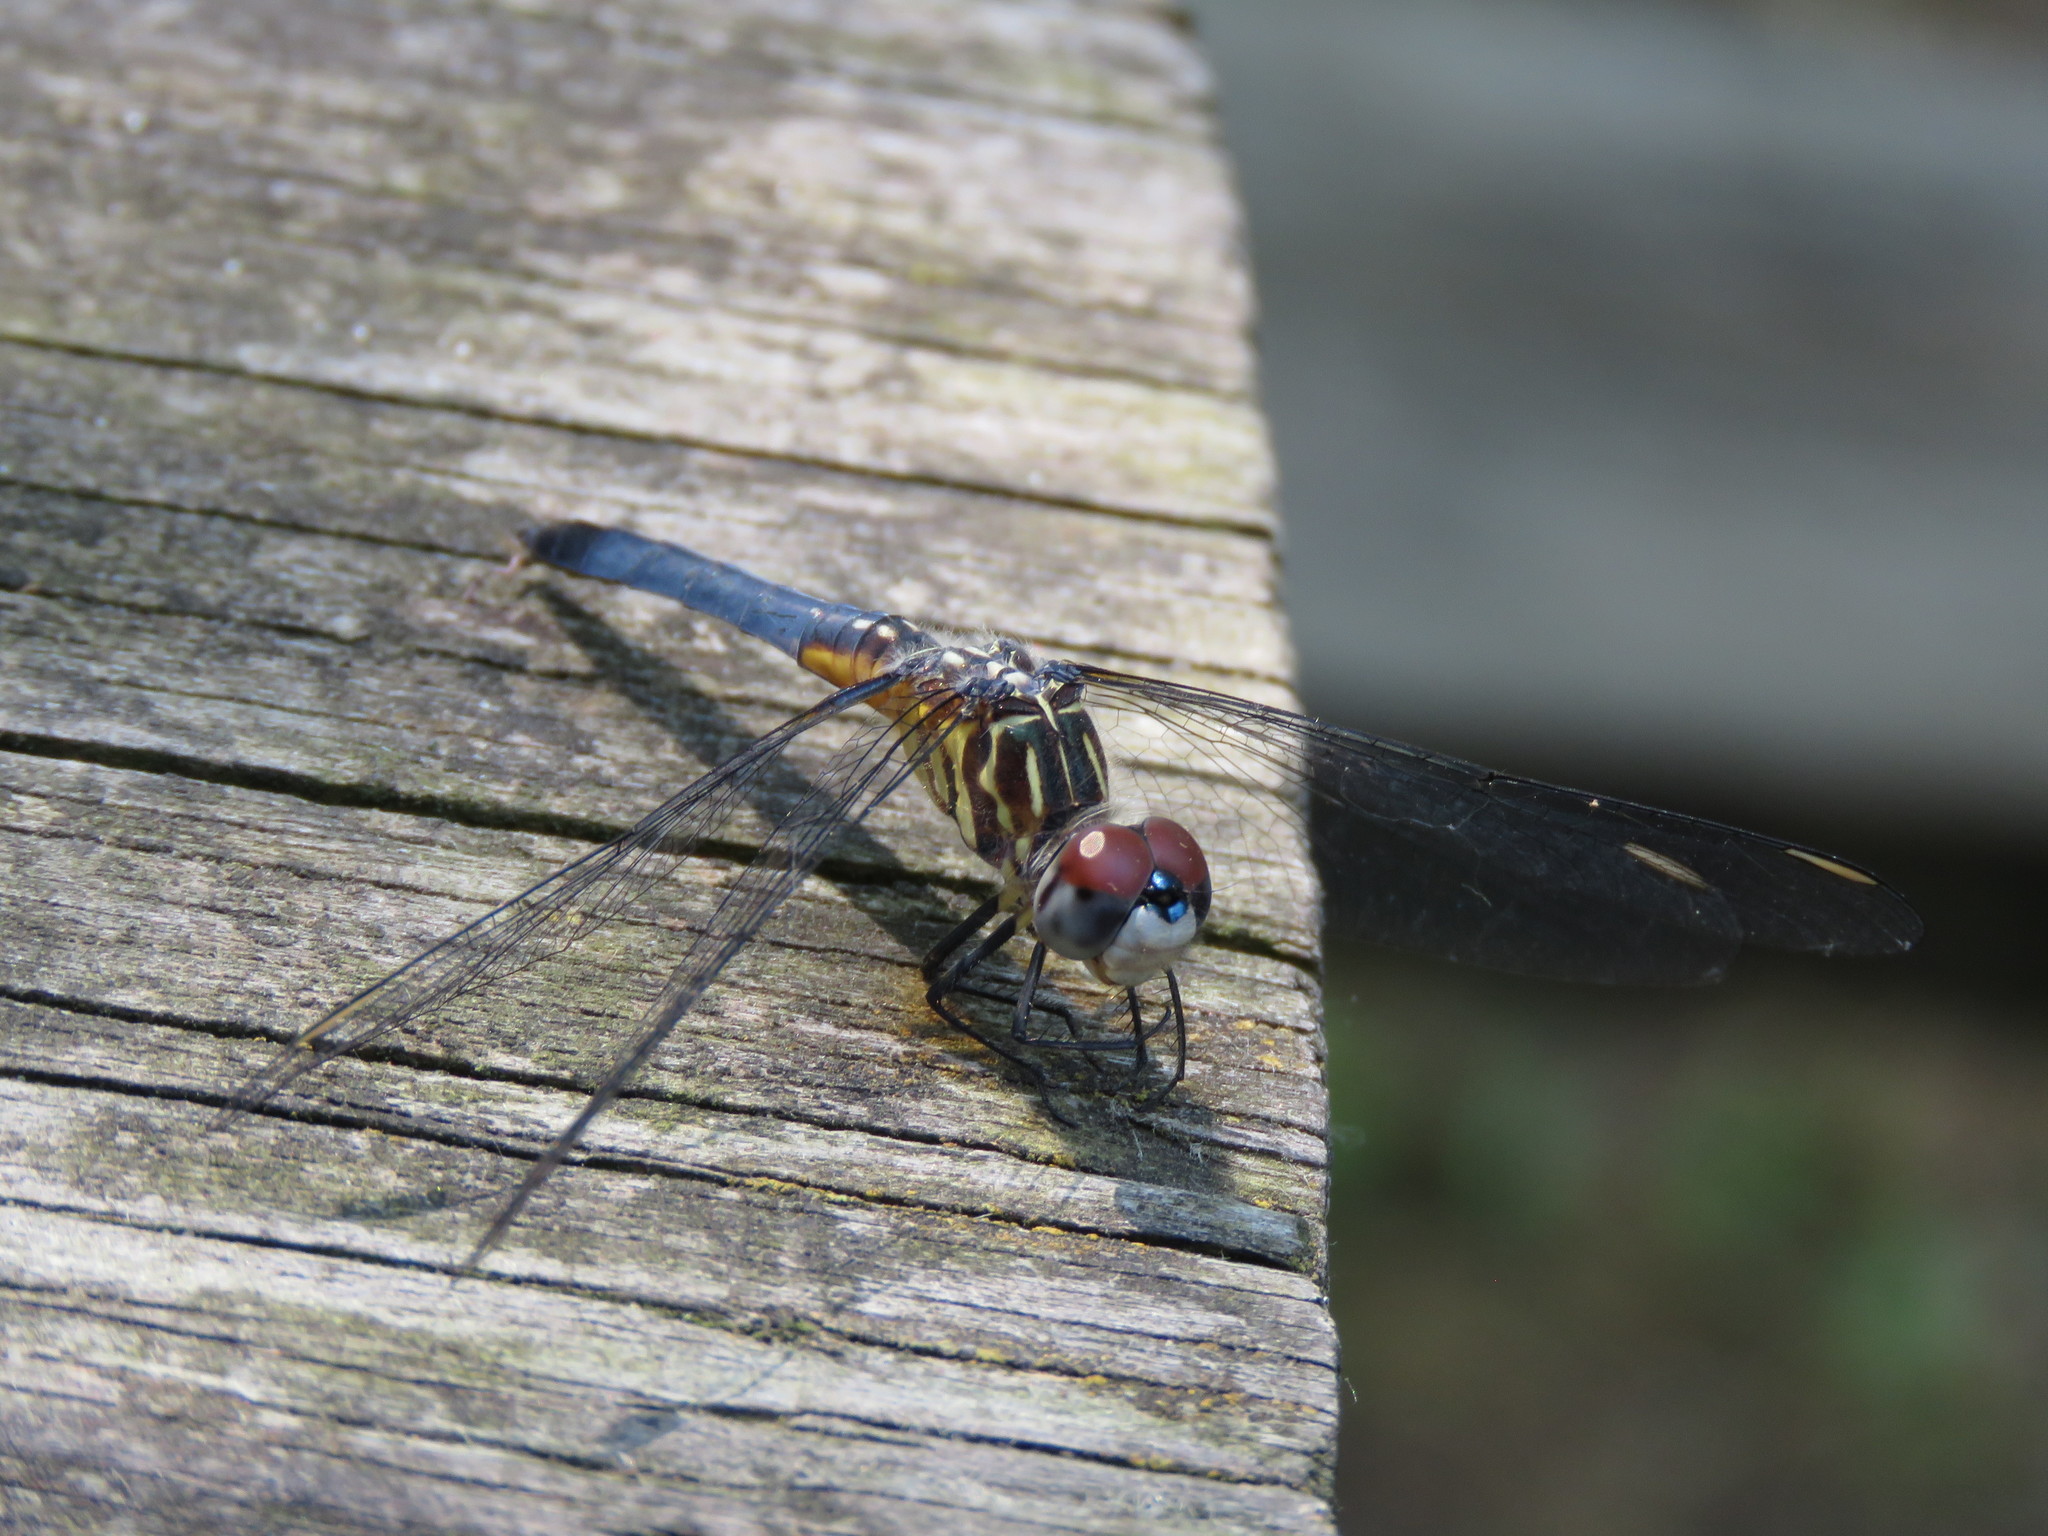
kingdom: Animalia
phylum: Arthropoda
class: Insecta
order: Odonata
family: Libellulidae
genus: Pachydiplax
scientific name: Pachydiplax longipennis
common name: Blue dasher
